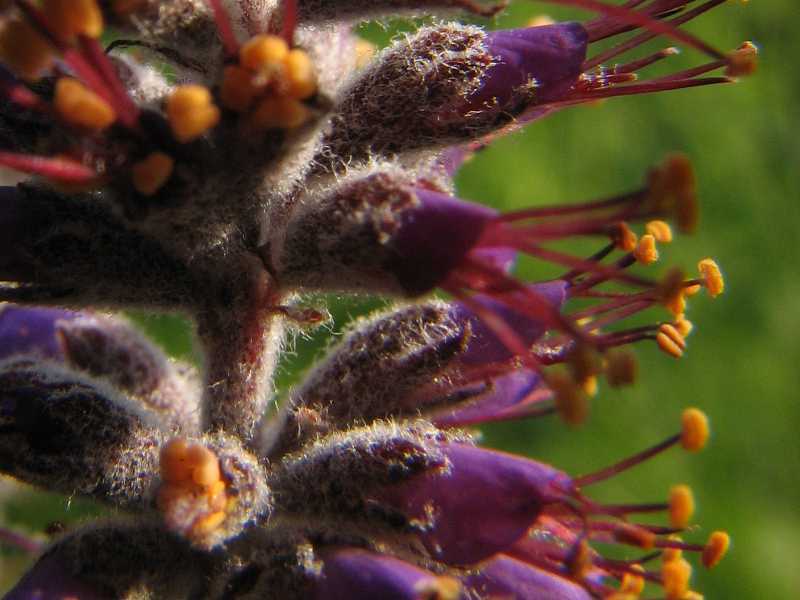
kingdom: Plantae
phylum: Tracheophyta
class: Magnoliopsida
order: Fabales
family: Fabaceae
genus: Amorpha
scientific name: Amorpha canescens
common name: Leadplant
